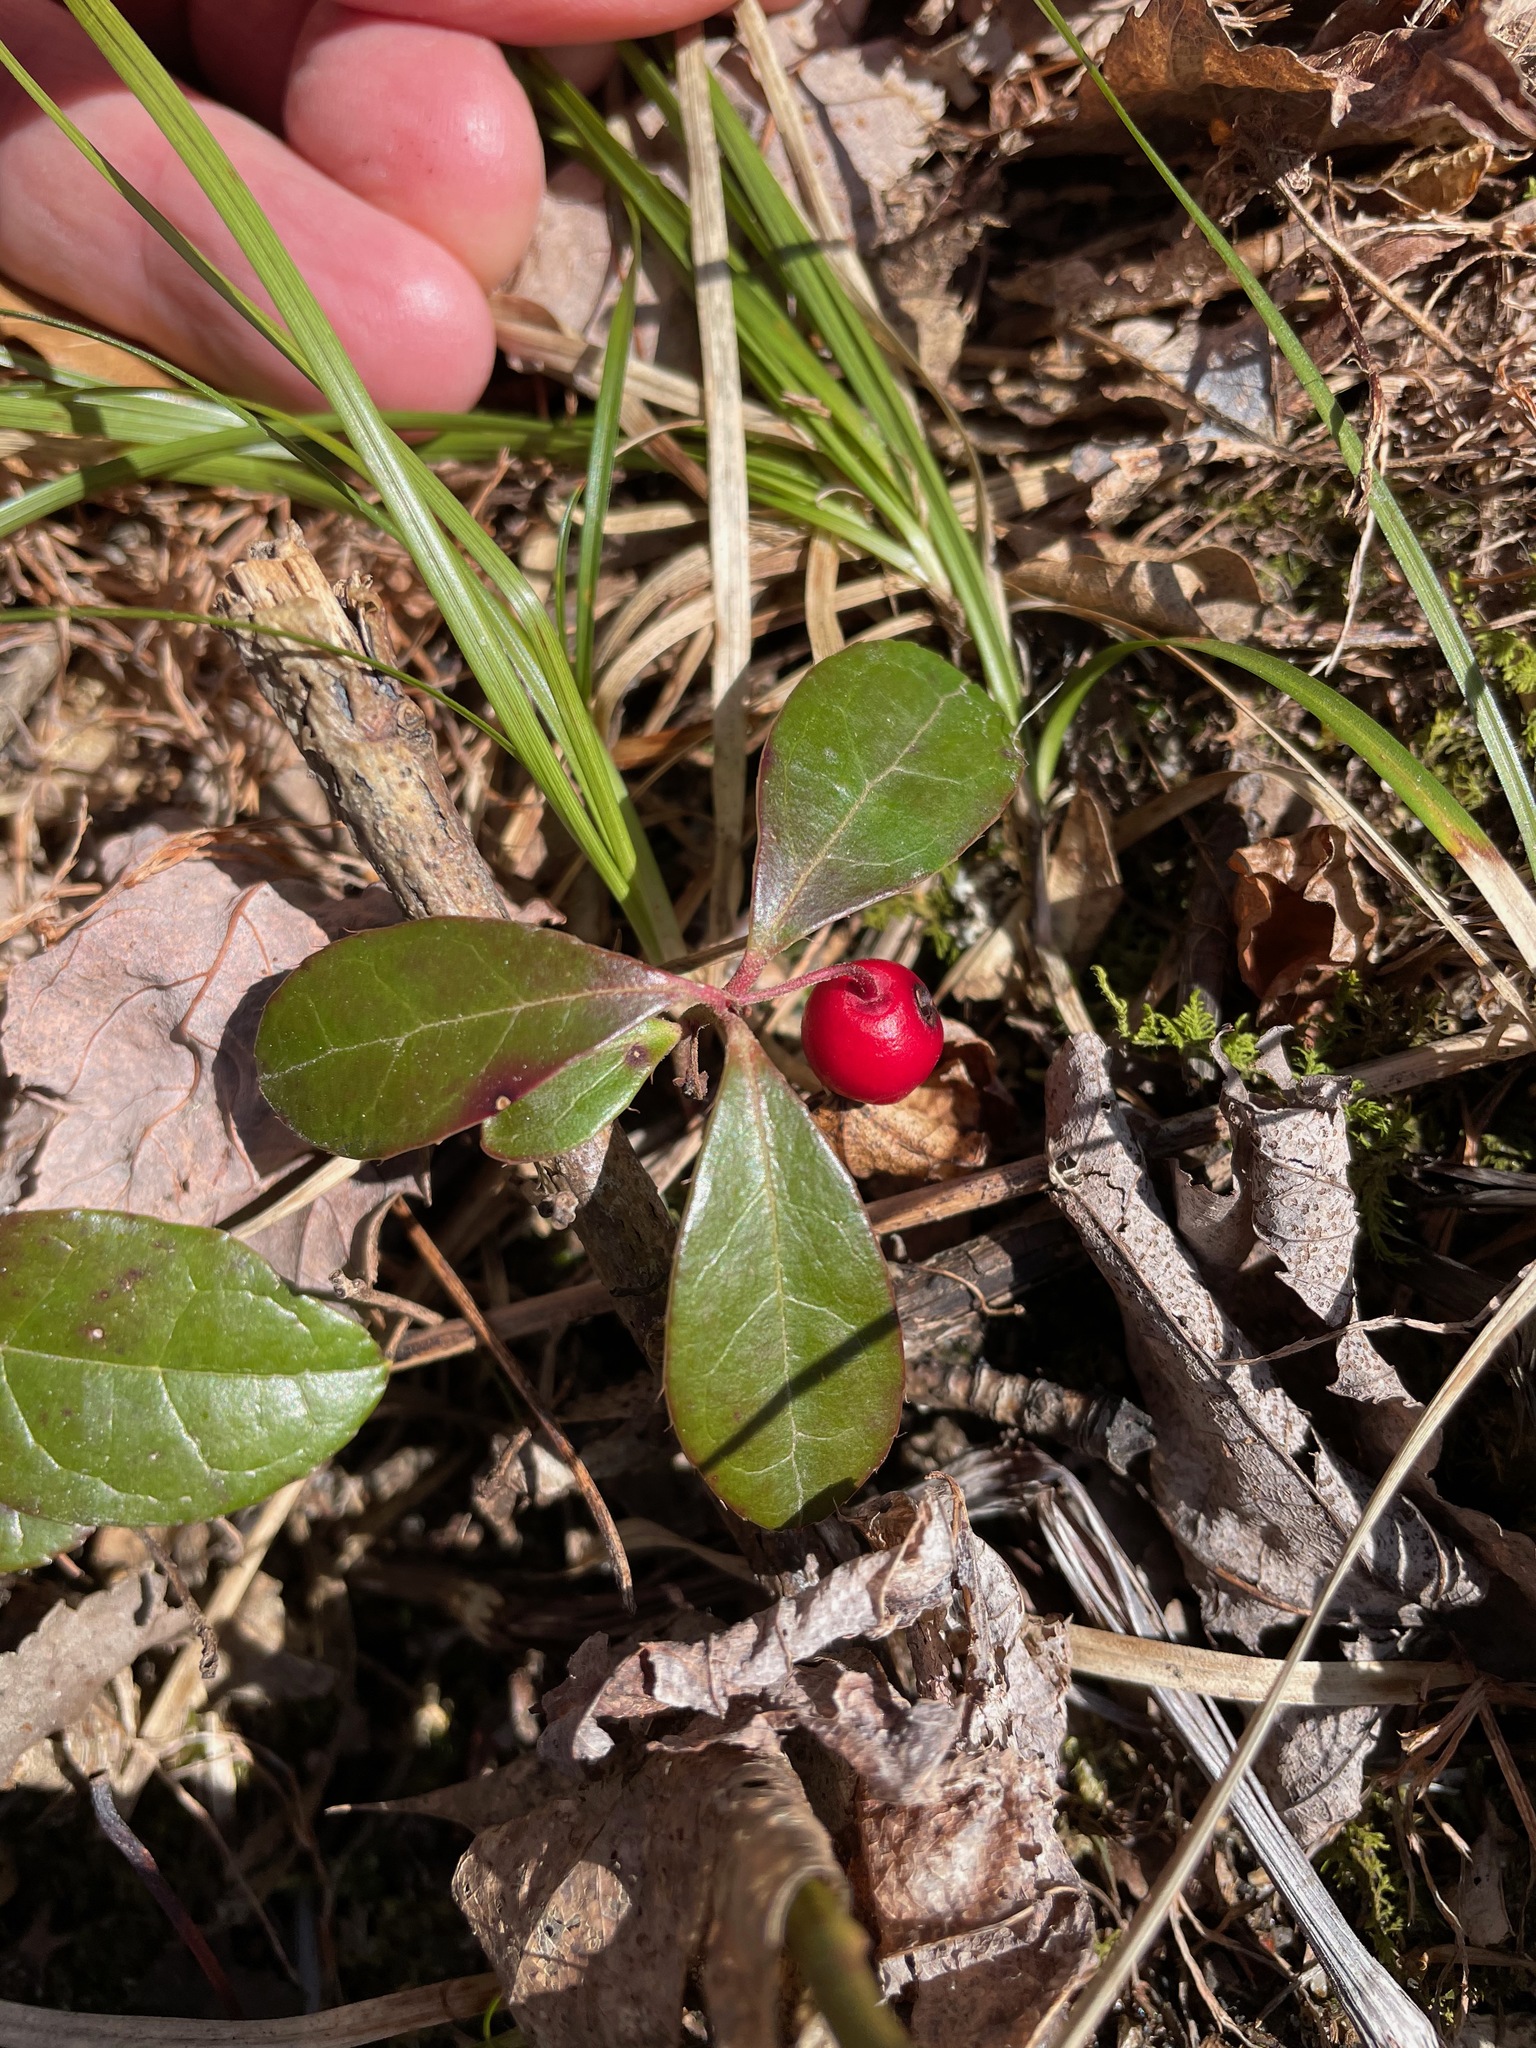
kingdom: Plantae
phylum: Tracheophyta
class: Magnoliopsida
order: Ericales
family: Ericaceae
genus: Gaultheria
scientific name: Gaultheria procumbens
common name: Checkerberry
